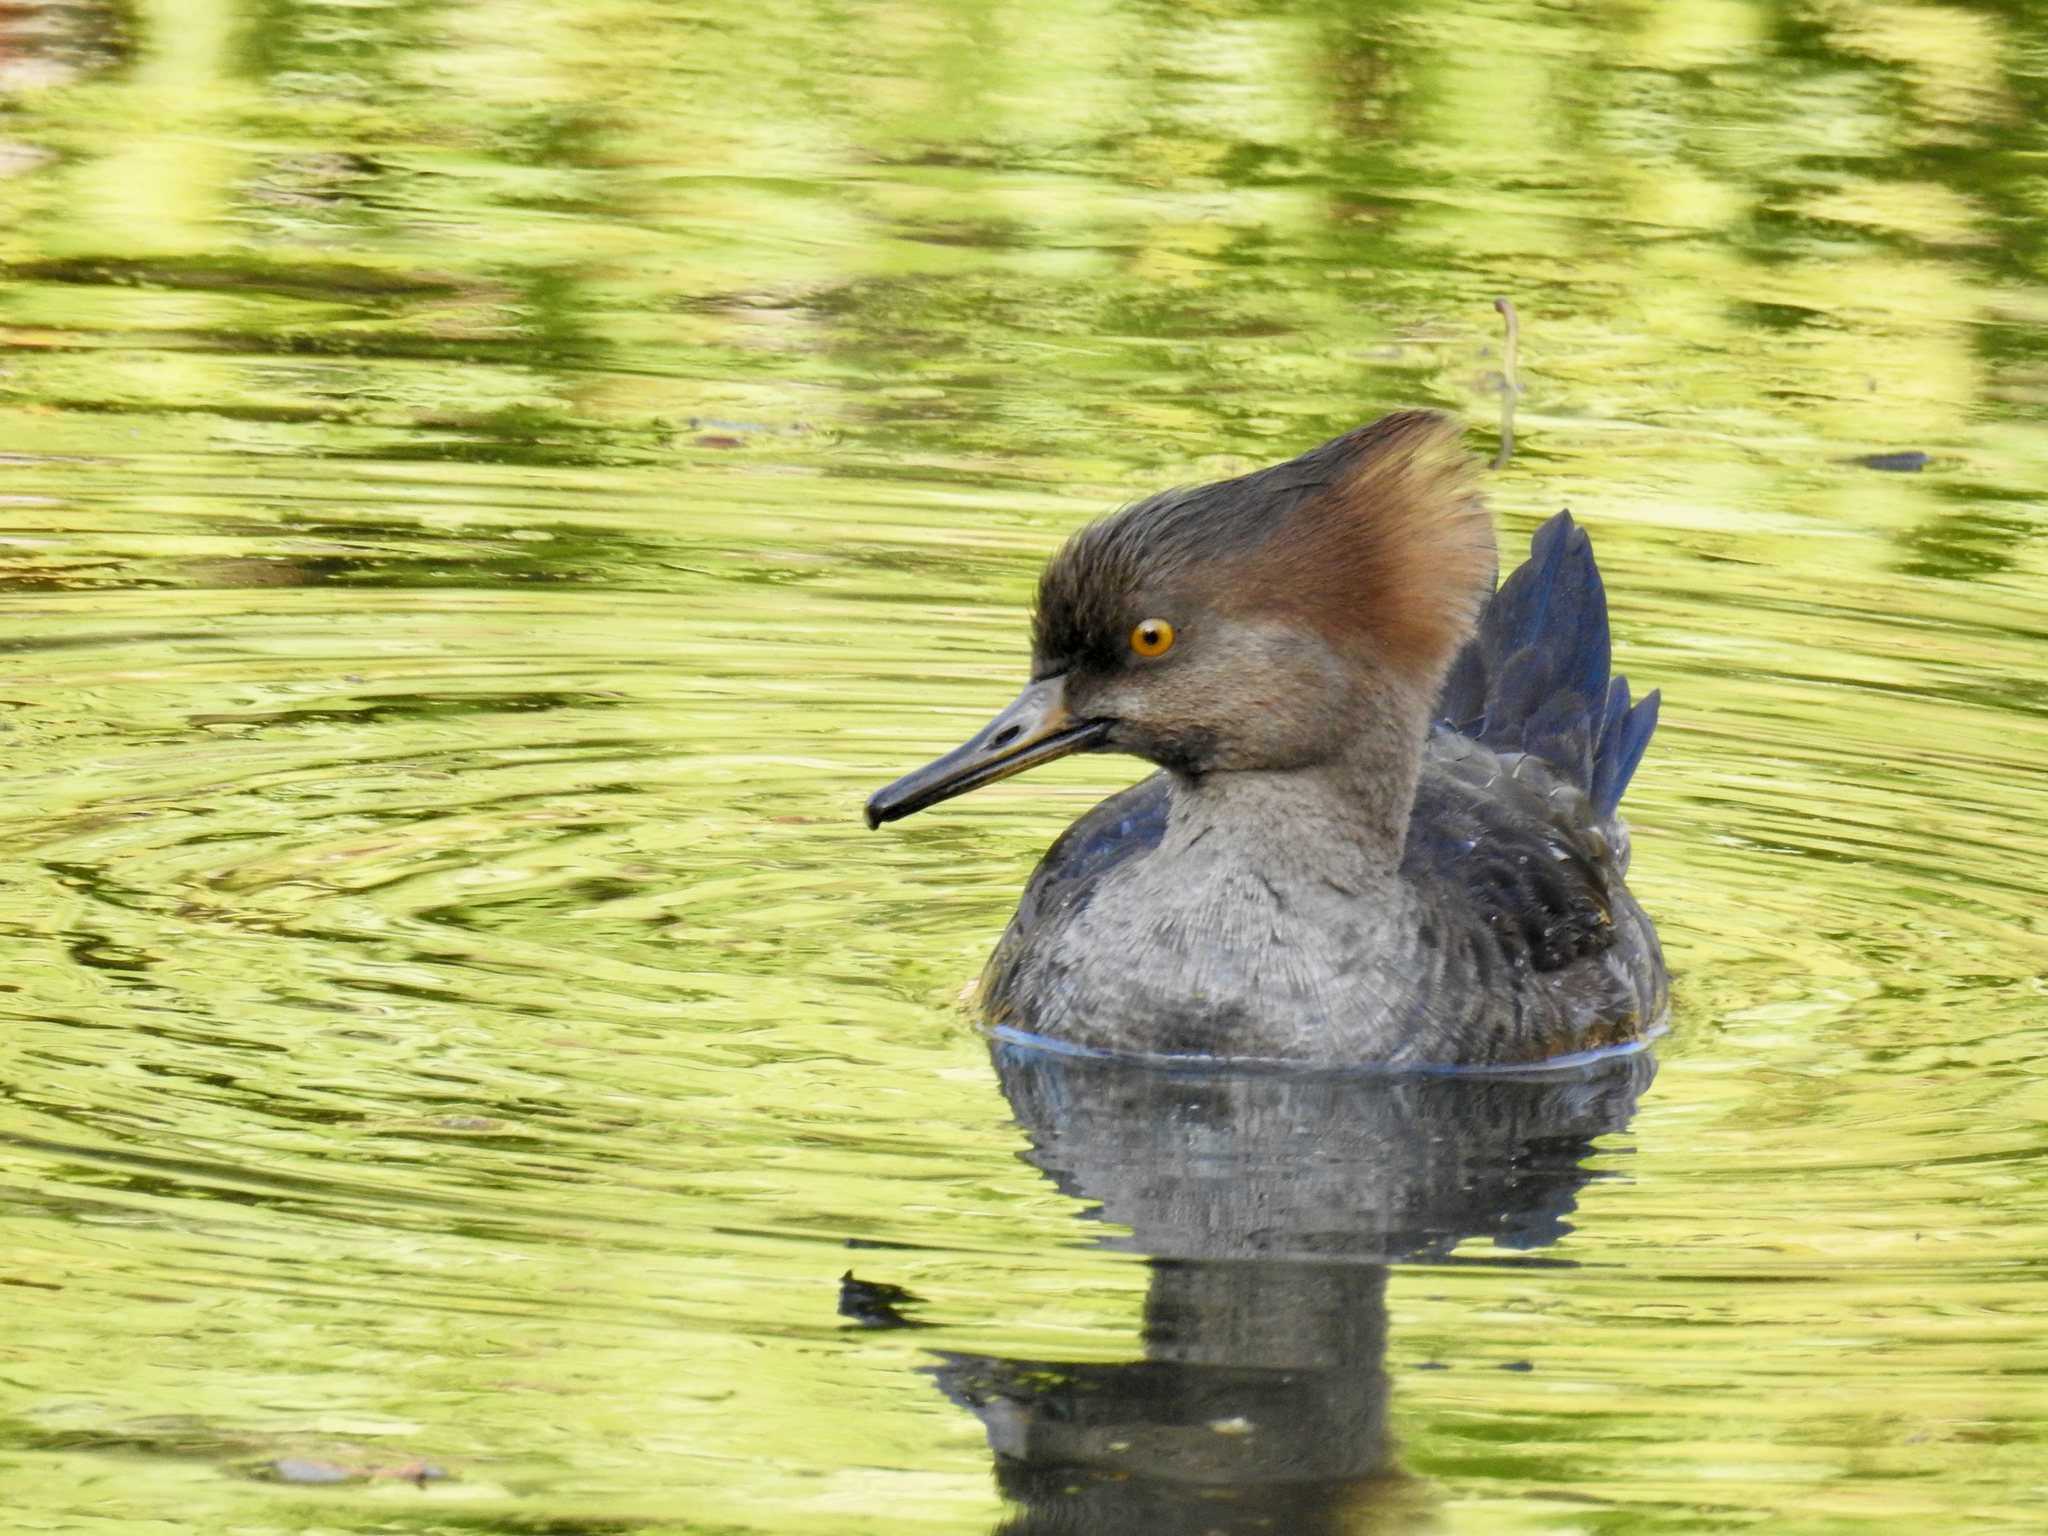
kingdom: Animalia
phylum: Chordata
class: Aves
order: Anseriformes
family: Anatidae
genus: Lophodytes
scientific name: Lophodytes cucullatus
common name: Hooded merganser
